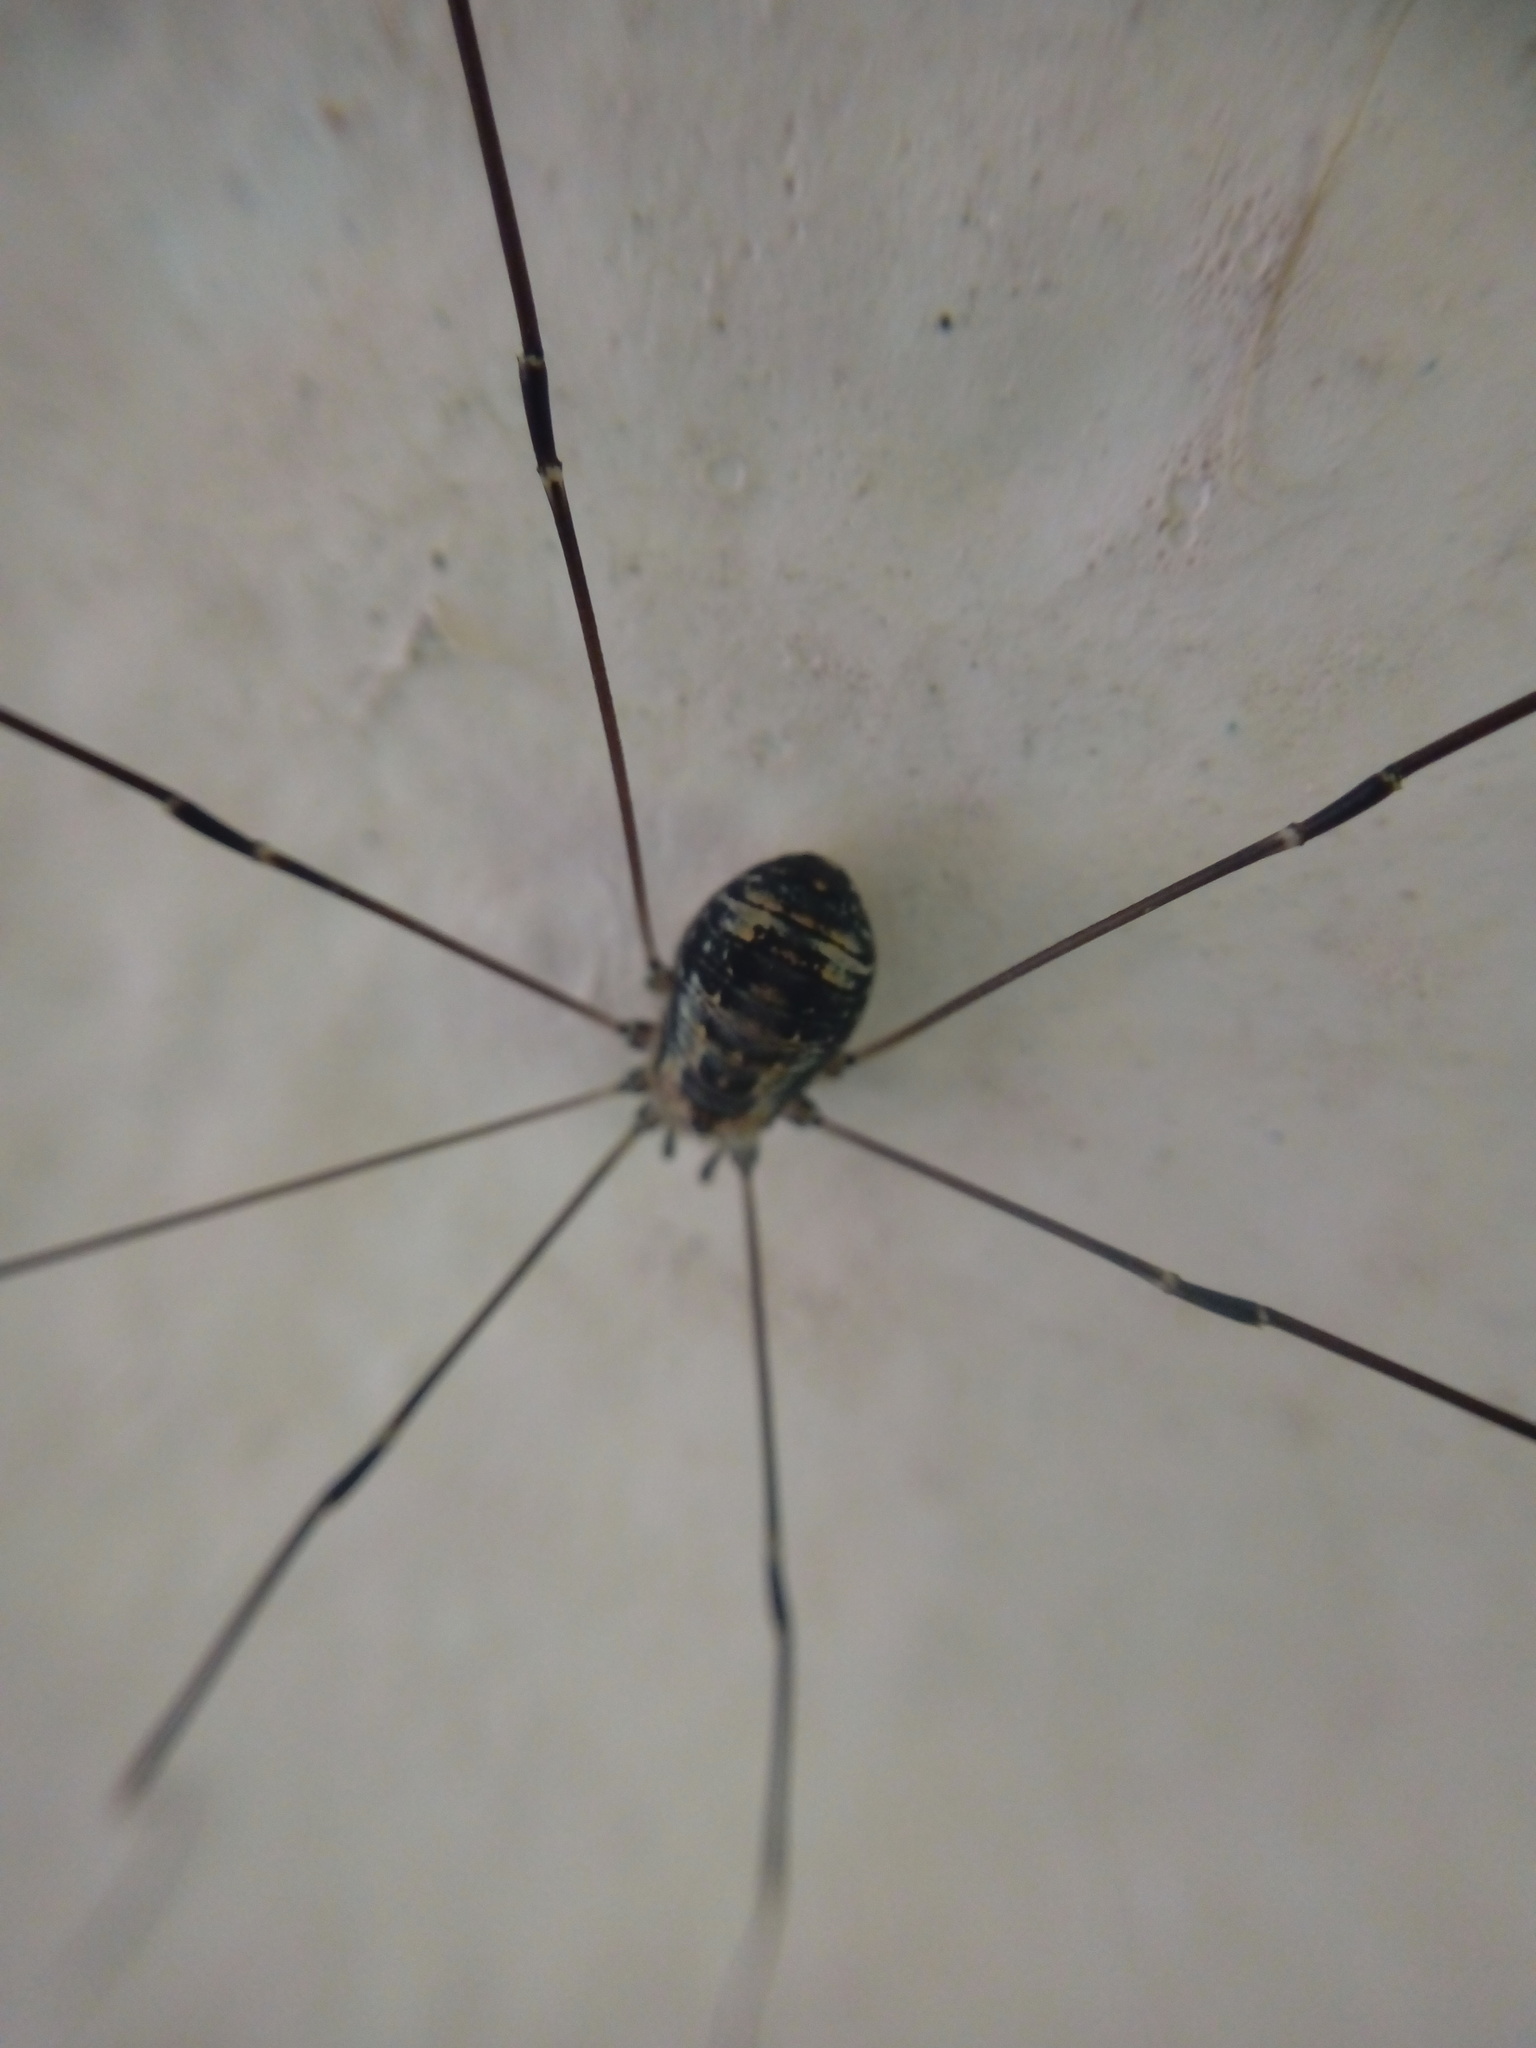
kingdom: Animalia
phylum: Arthropoda
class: Arachnida
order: Opiliones
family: Sclerosomatidae
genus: Leiobunum
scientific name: Leiobunum limbatum
